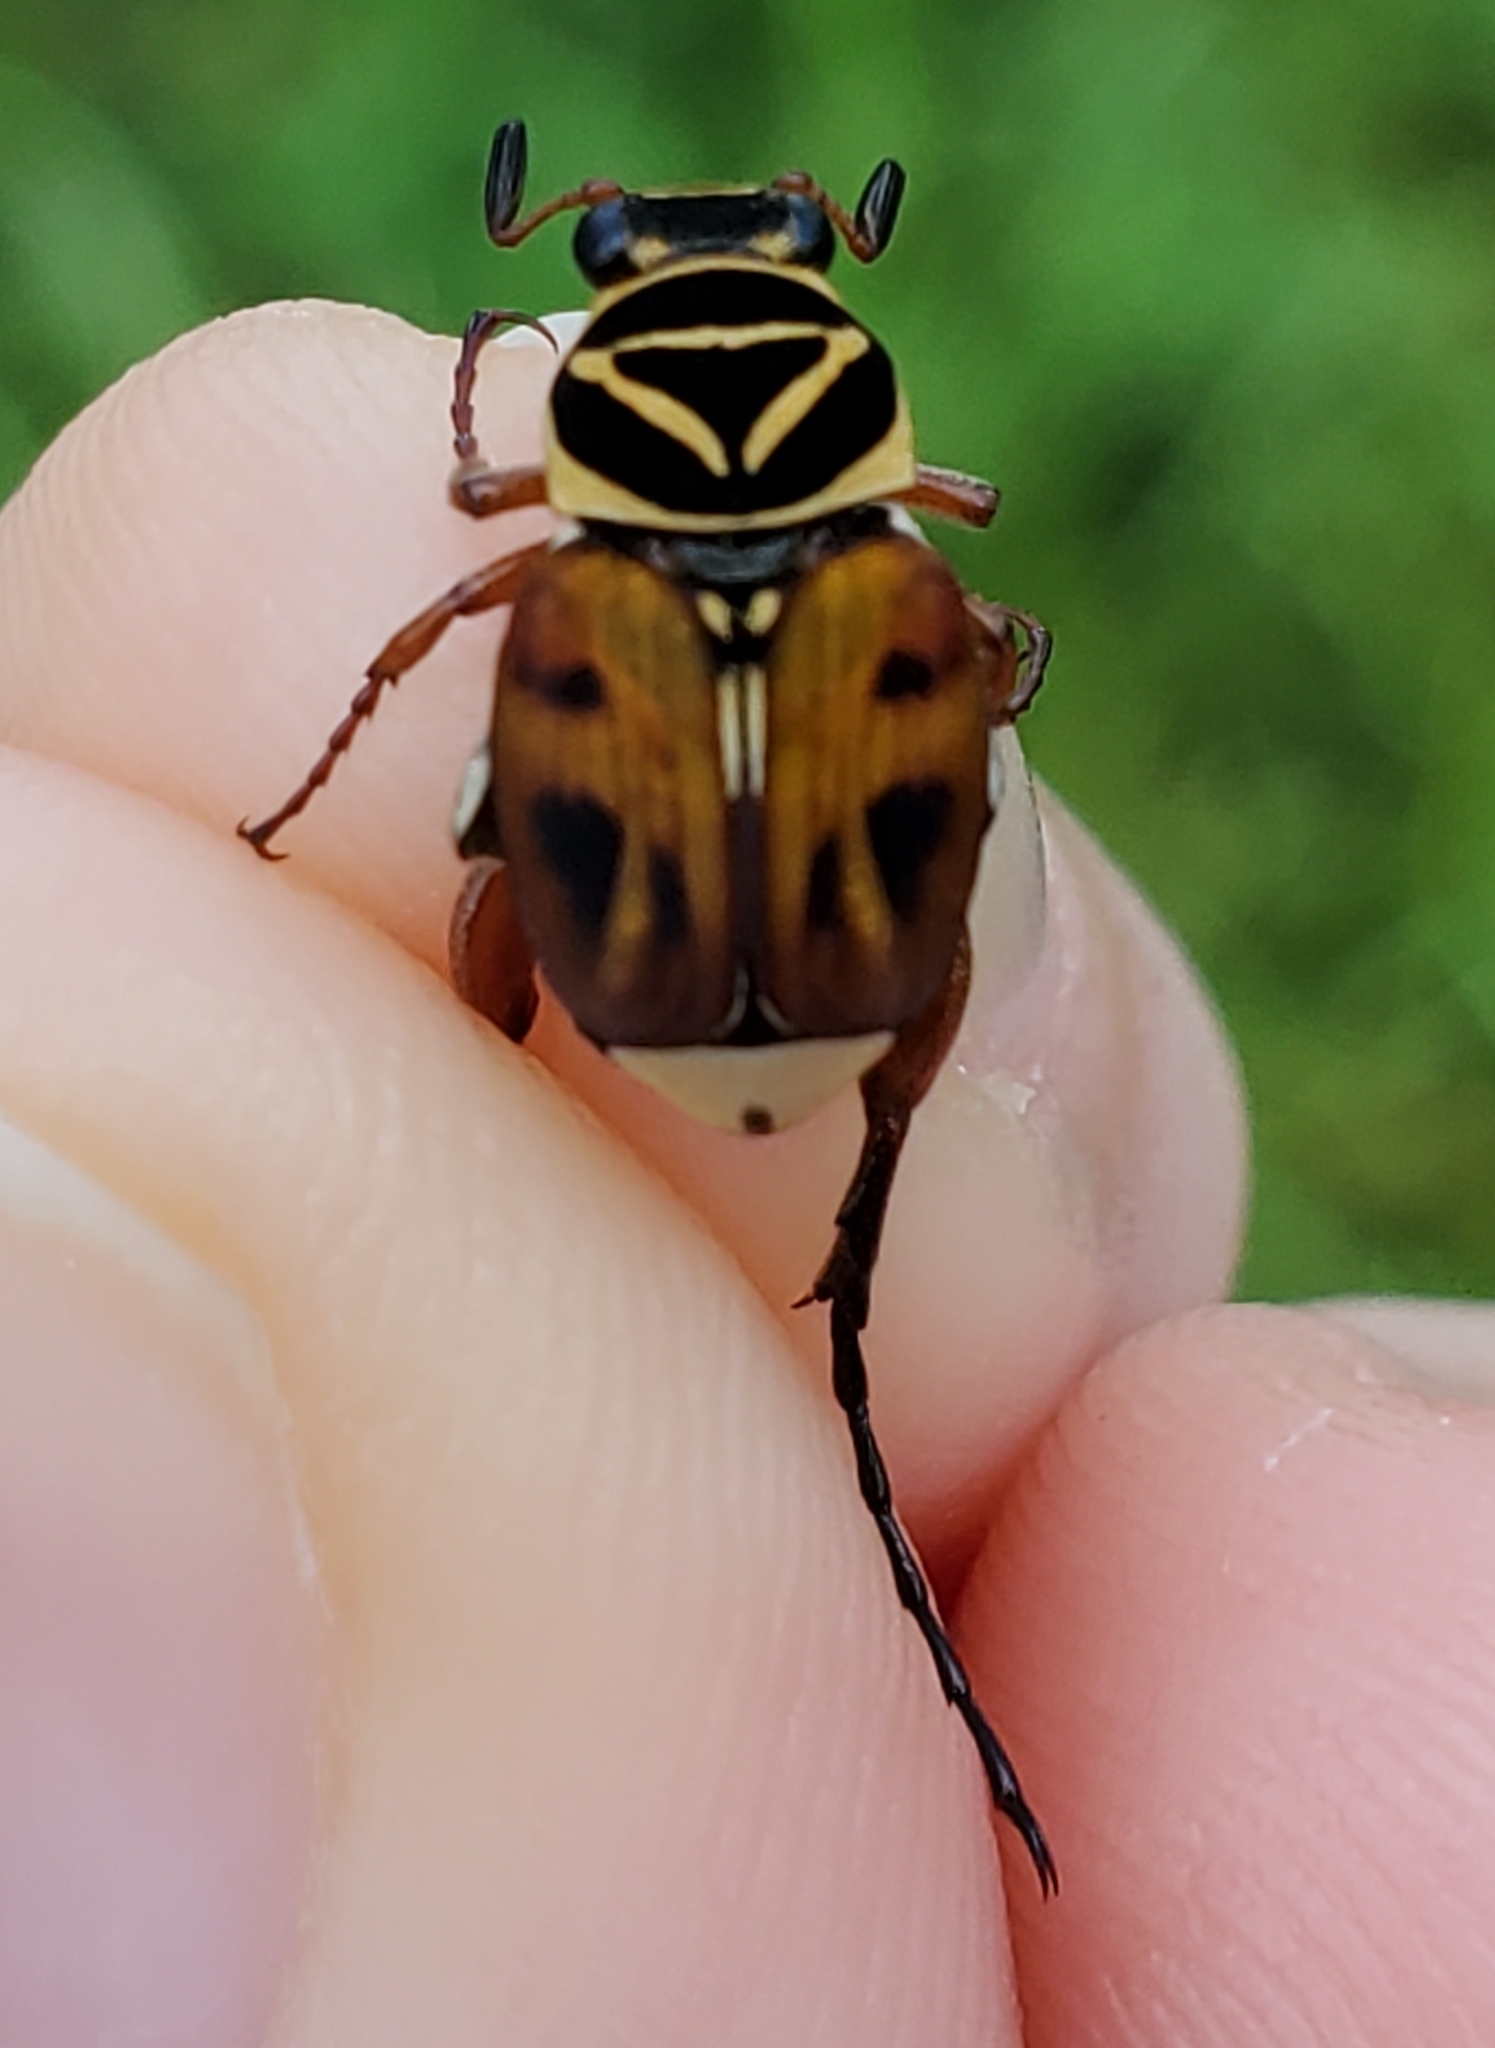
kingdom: Animalia
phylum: Arthropoda
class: Insecta
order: Coleoptera
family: Scarabaeidae
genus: Trigonopeltastes
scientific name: Trigonopeltastes delta
